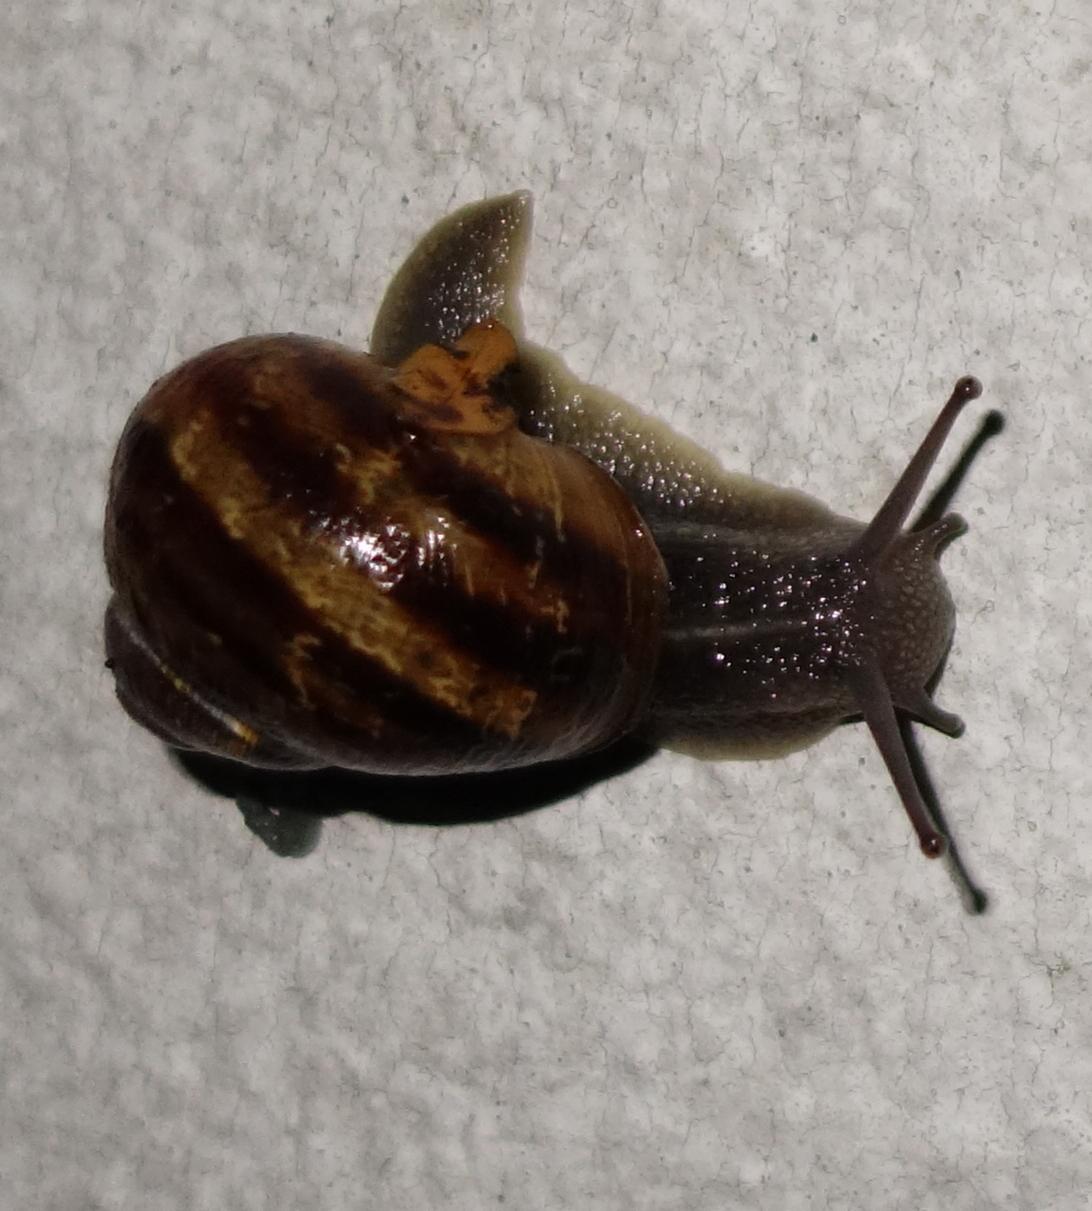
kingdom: Animalia
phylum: Mollusca
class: Gastropoda
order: Stylommatophora
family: Helicidae
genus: Cornu
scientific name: Cornu aspersum
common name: Brown garden snail
